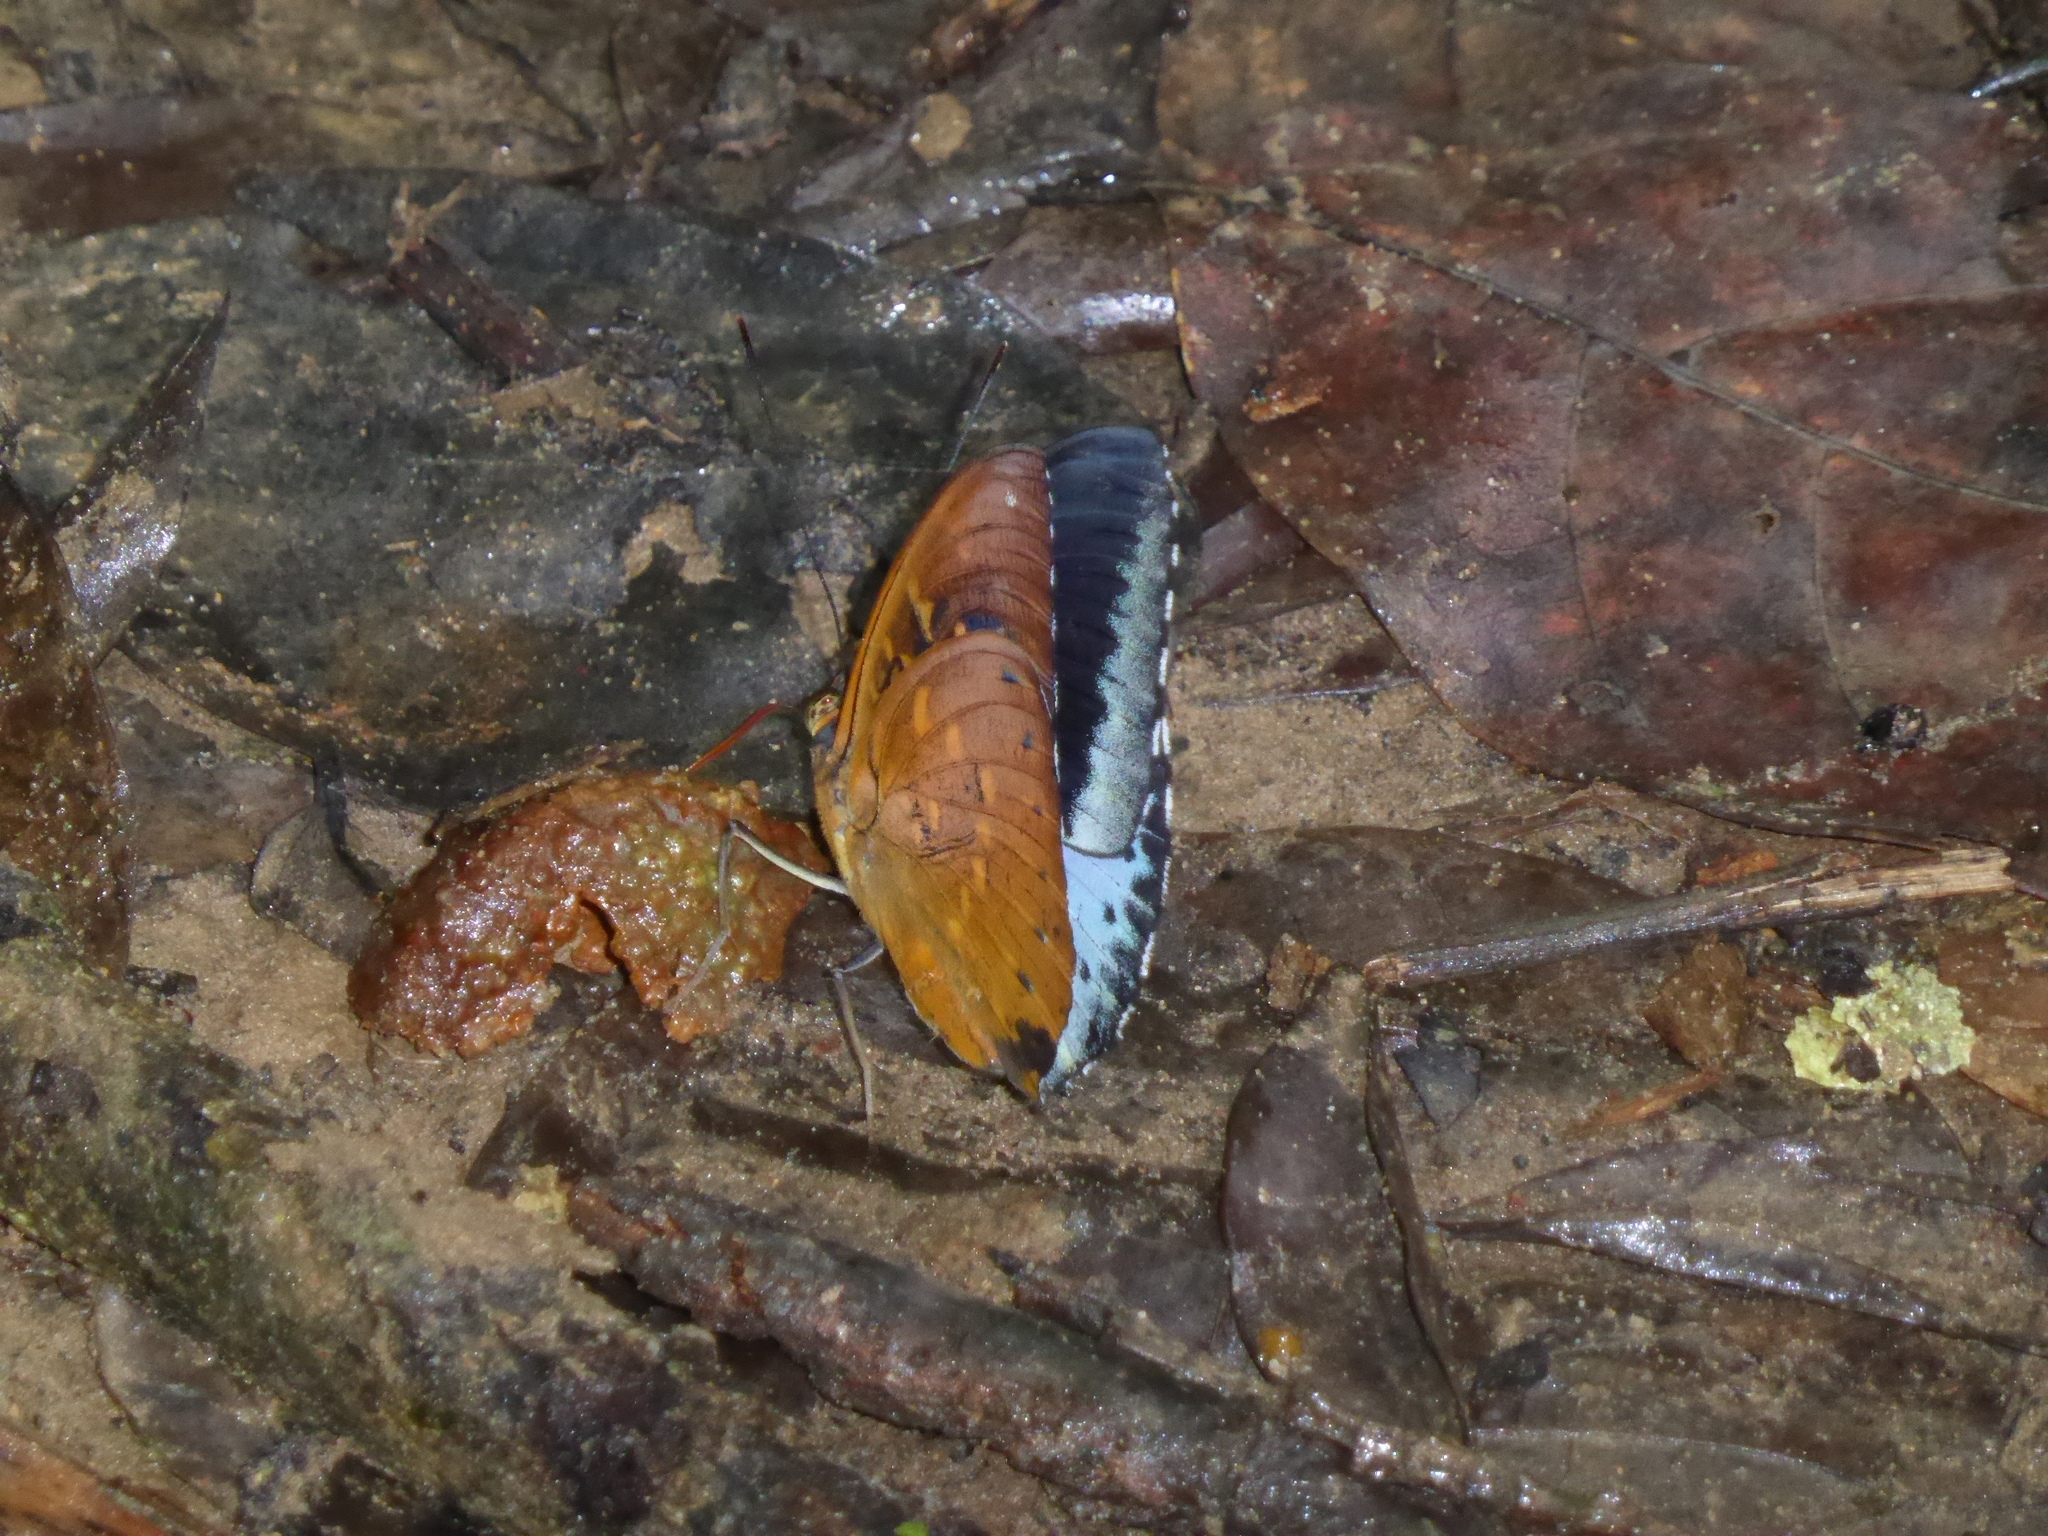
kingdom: Animalia
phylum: Arthropoda
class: Insecta
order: Lepidoptera
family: Nymphalidae
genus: Lexias
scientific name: Lexias dirtea
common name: Black-tipped archduke
